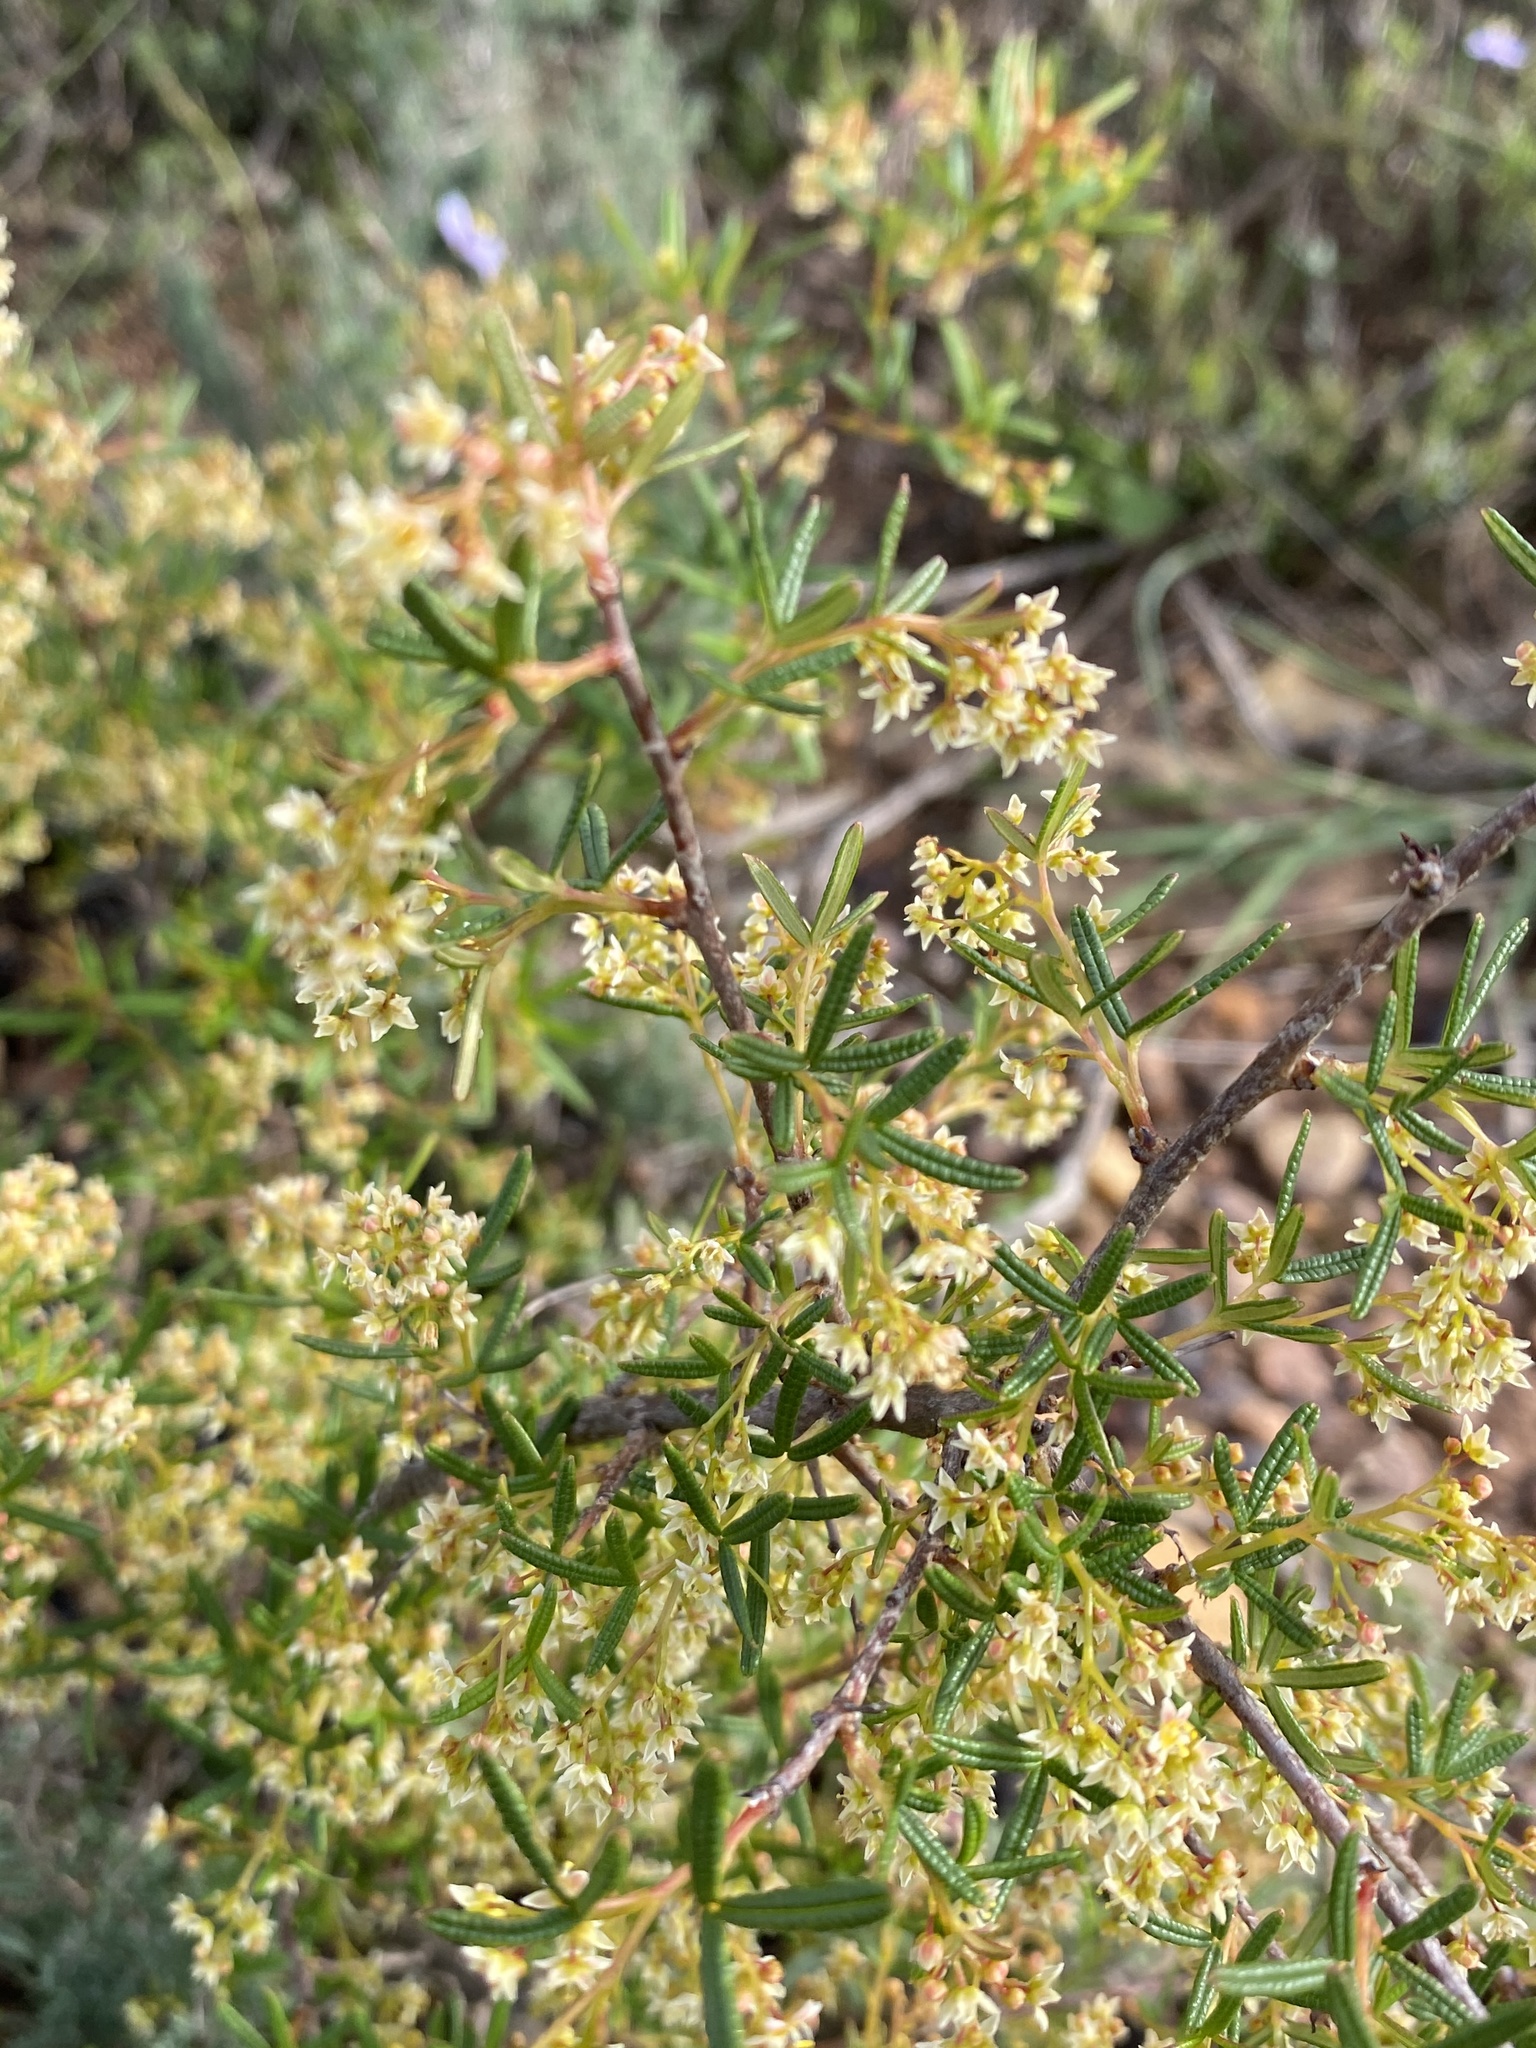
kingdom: Plantae
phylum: Tracheophyta
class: Magnoliopsida
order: Sapindales
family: Anacardiaceae
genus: Searsia
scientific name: Searsia rosmarinifolia
